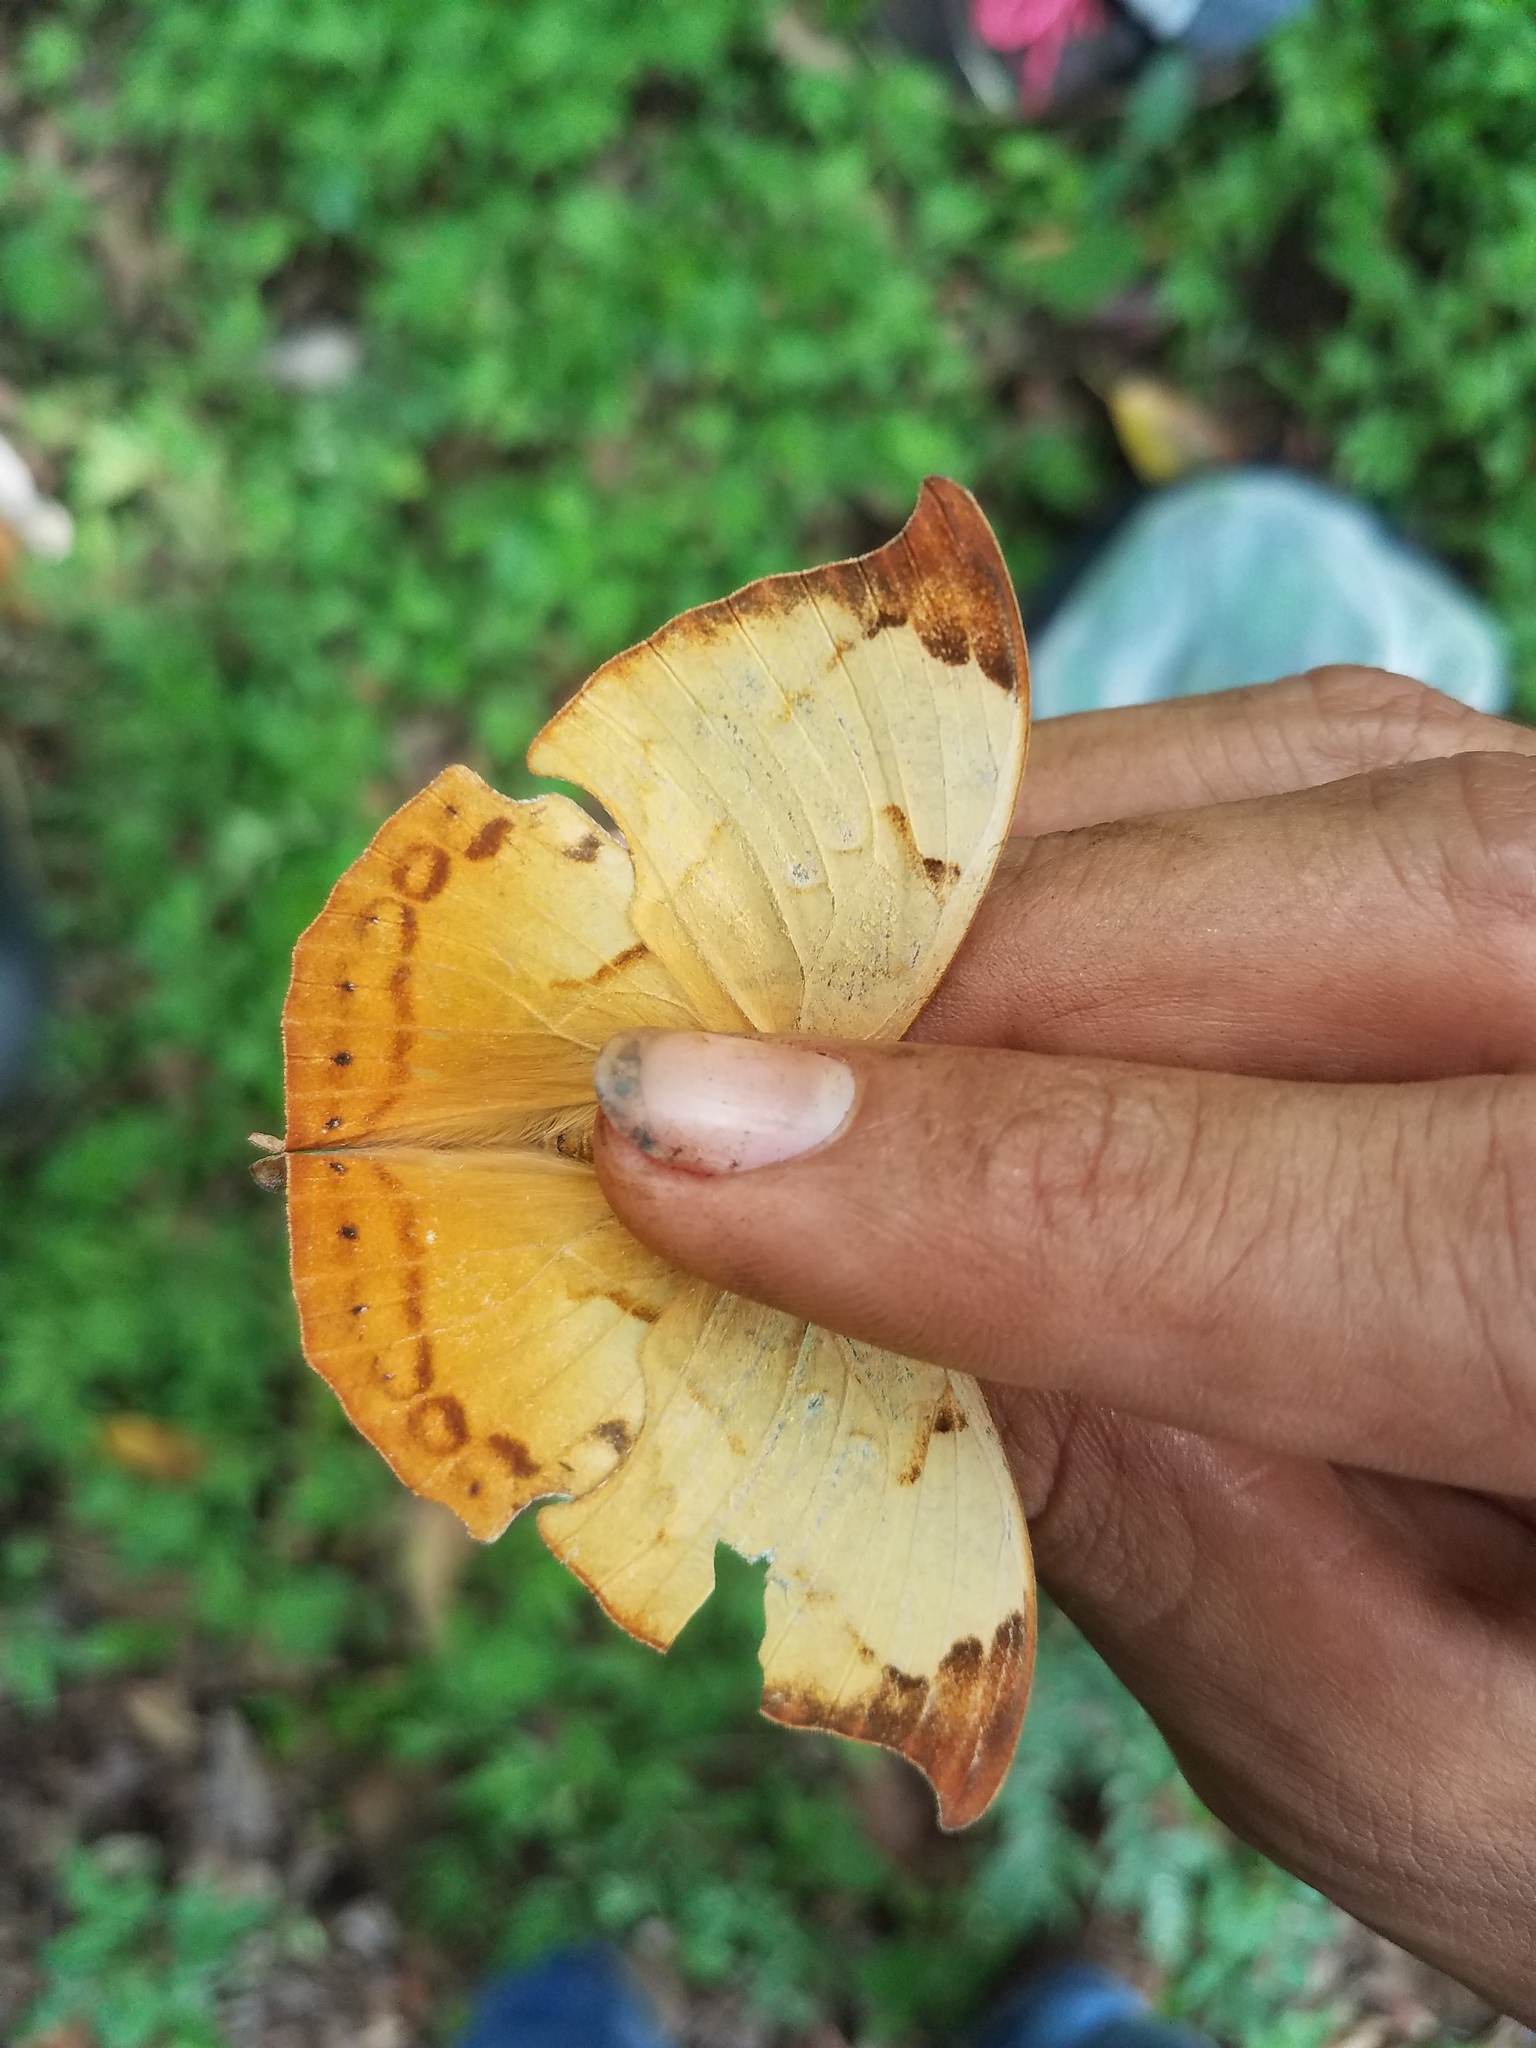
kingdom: Animalia
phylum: Arthropoda
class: Insecta
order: Lepidoptera
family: Nymphalidae
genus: Zaretis
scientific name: Zaretis itys
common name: Skeletonized leafwing
